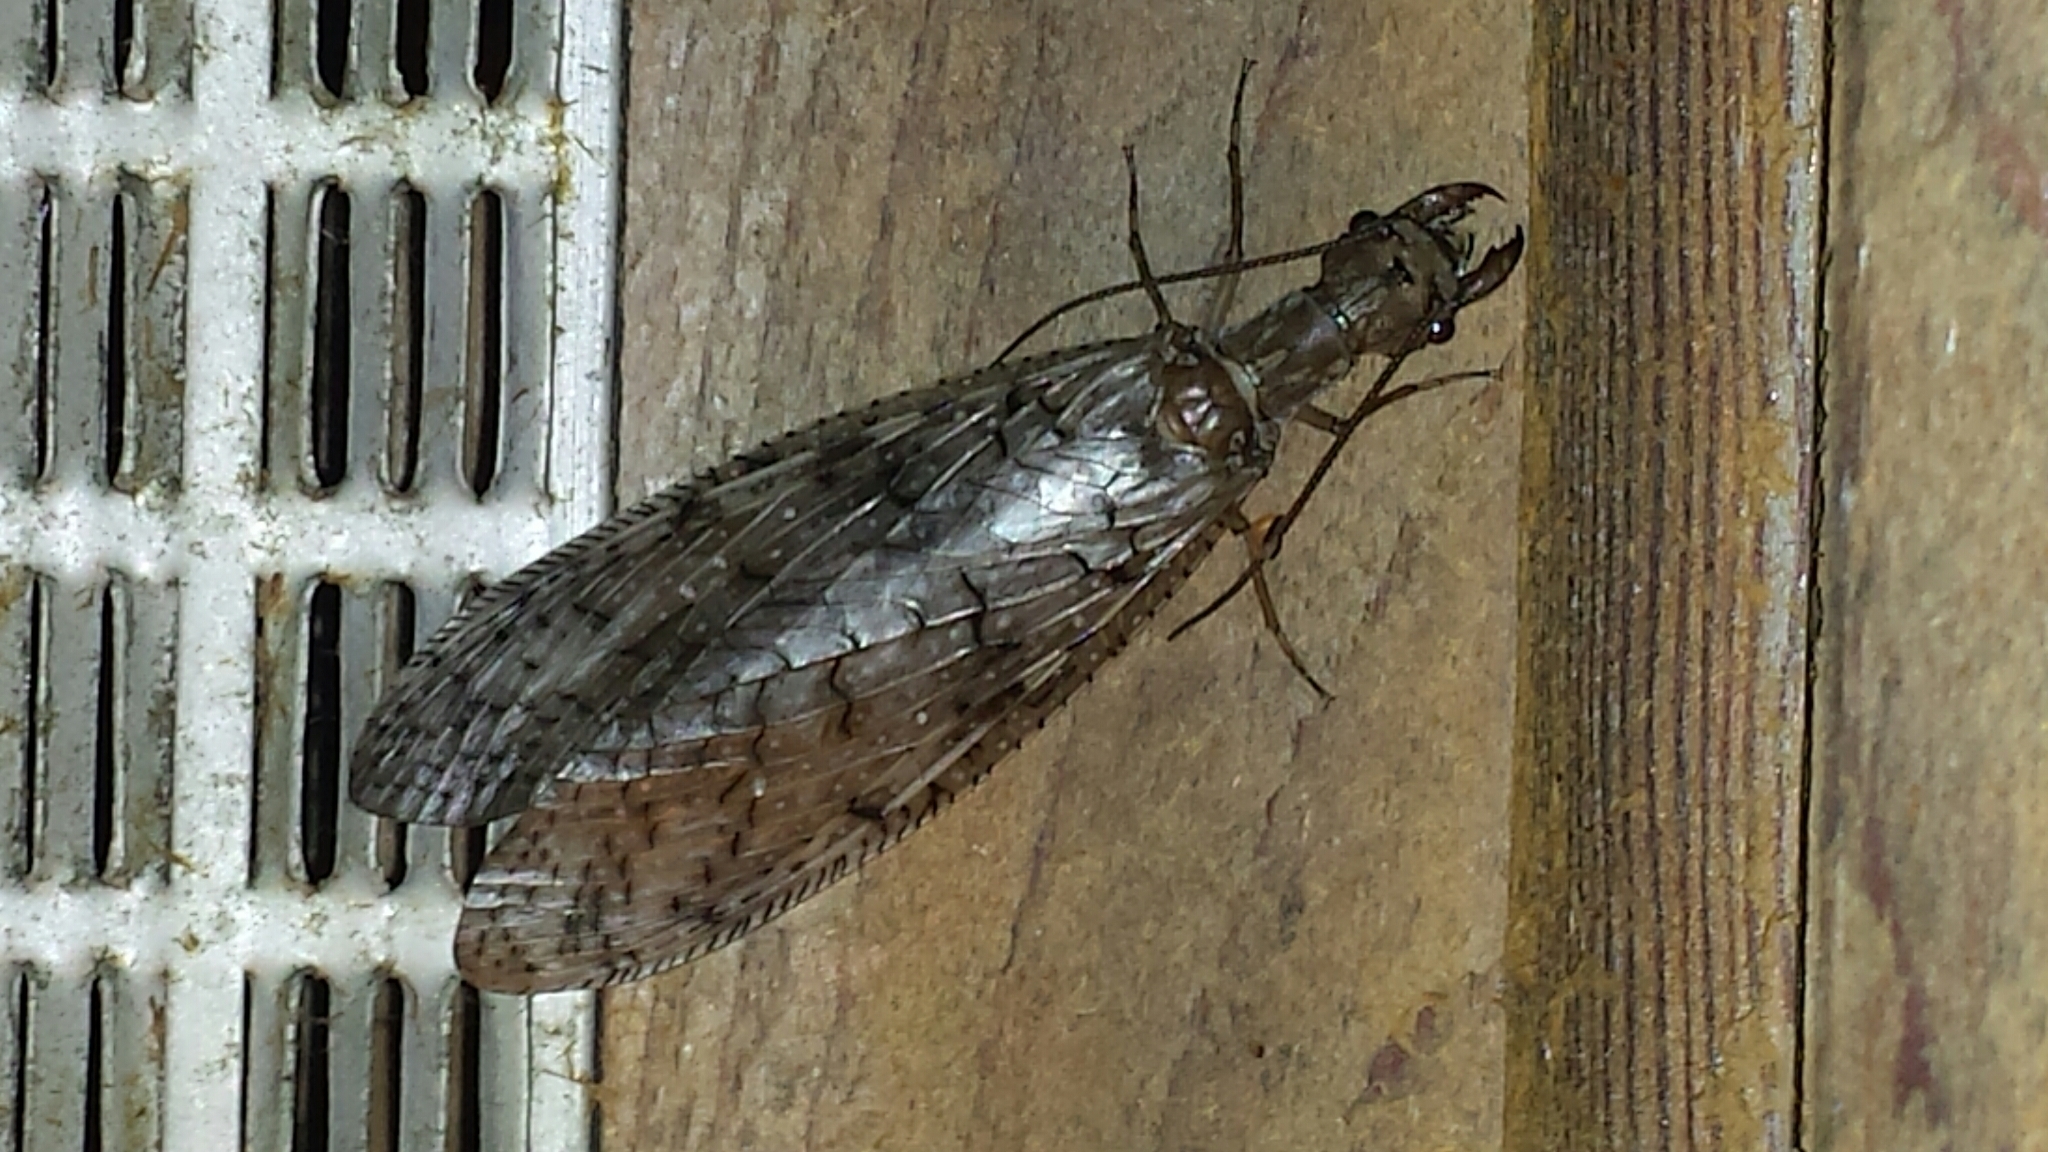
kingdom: Animalia
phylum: Arthropoda
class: Insecta
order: Megaloptera
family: Corydalidae
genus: Corydalus
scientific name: Corydalus cornutus
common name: Dobsonfly
